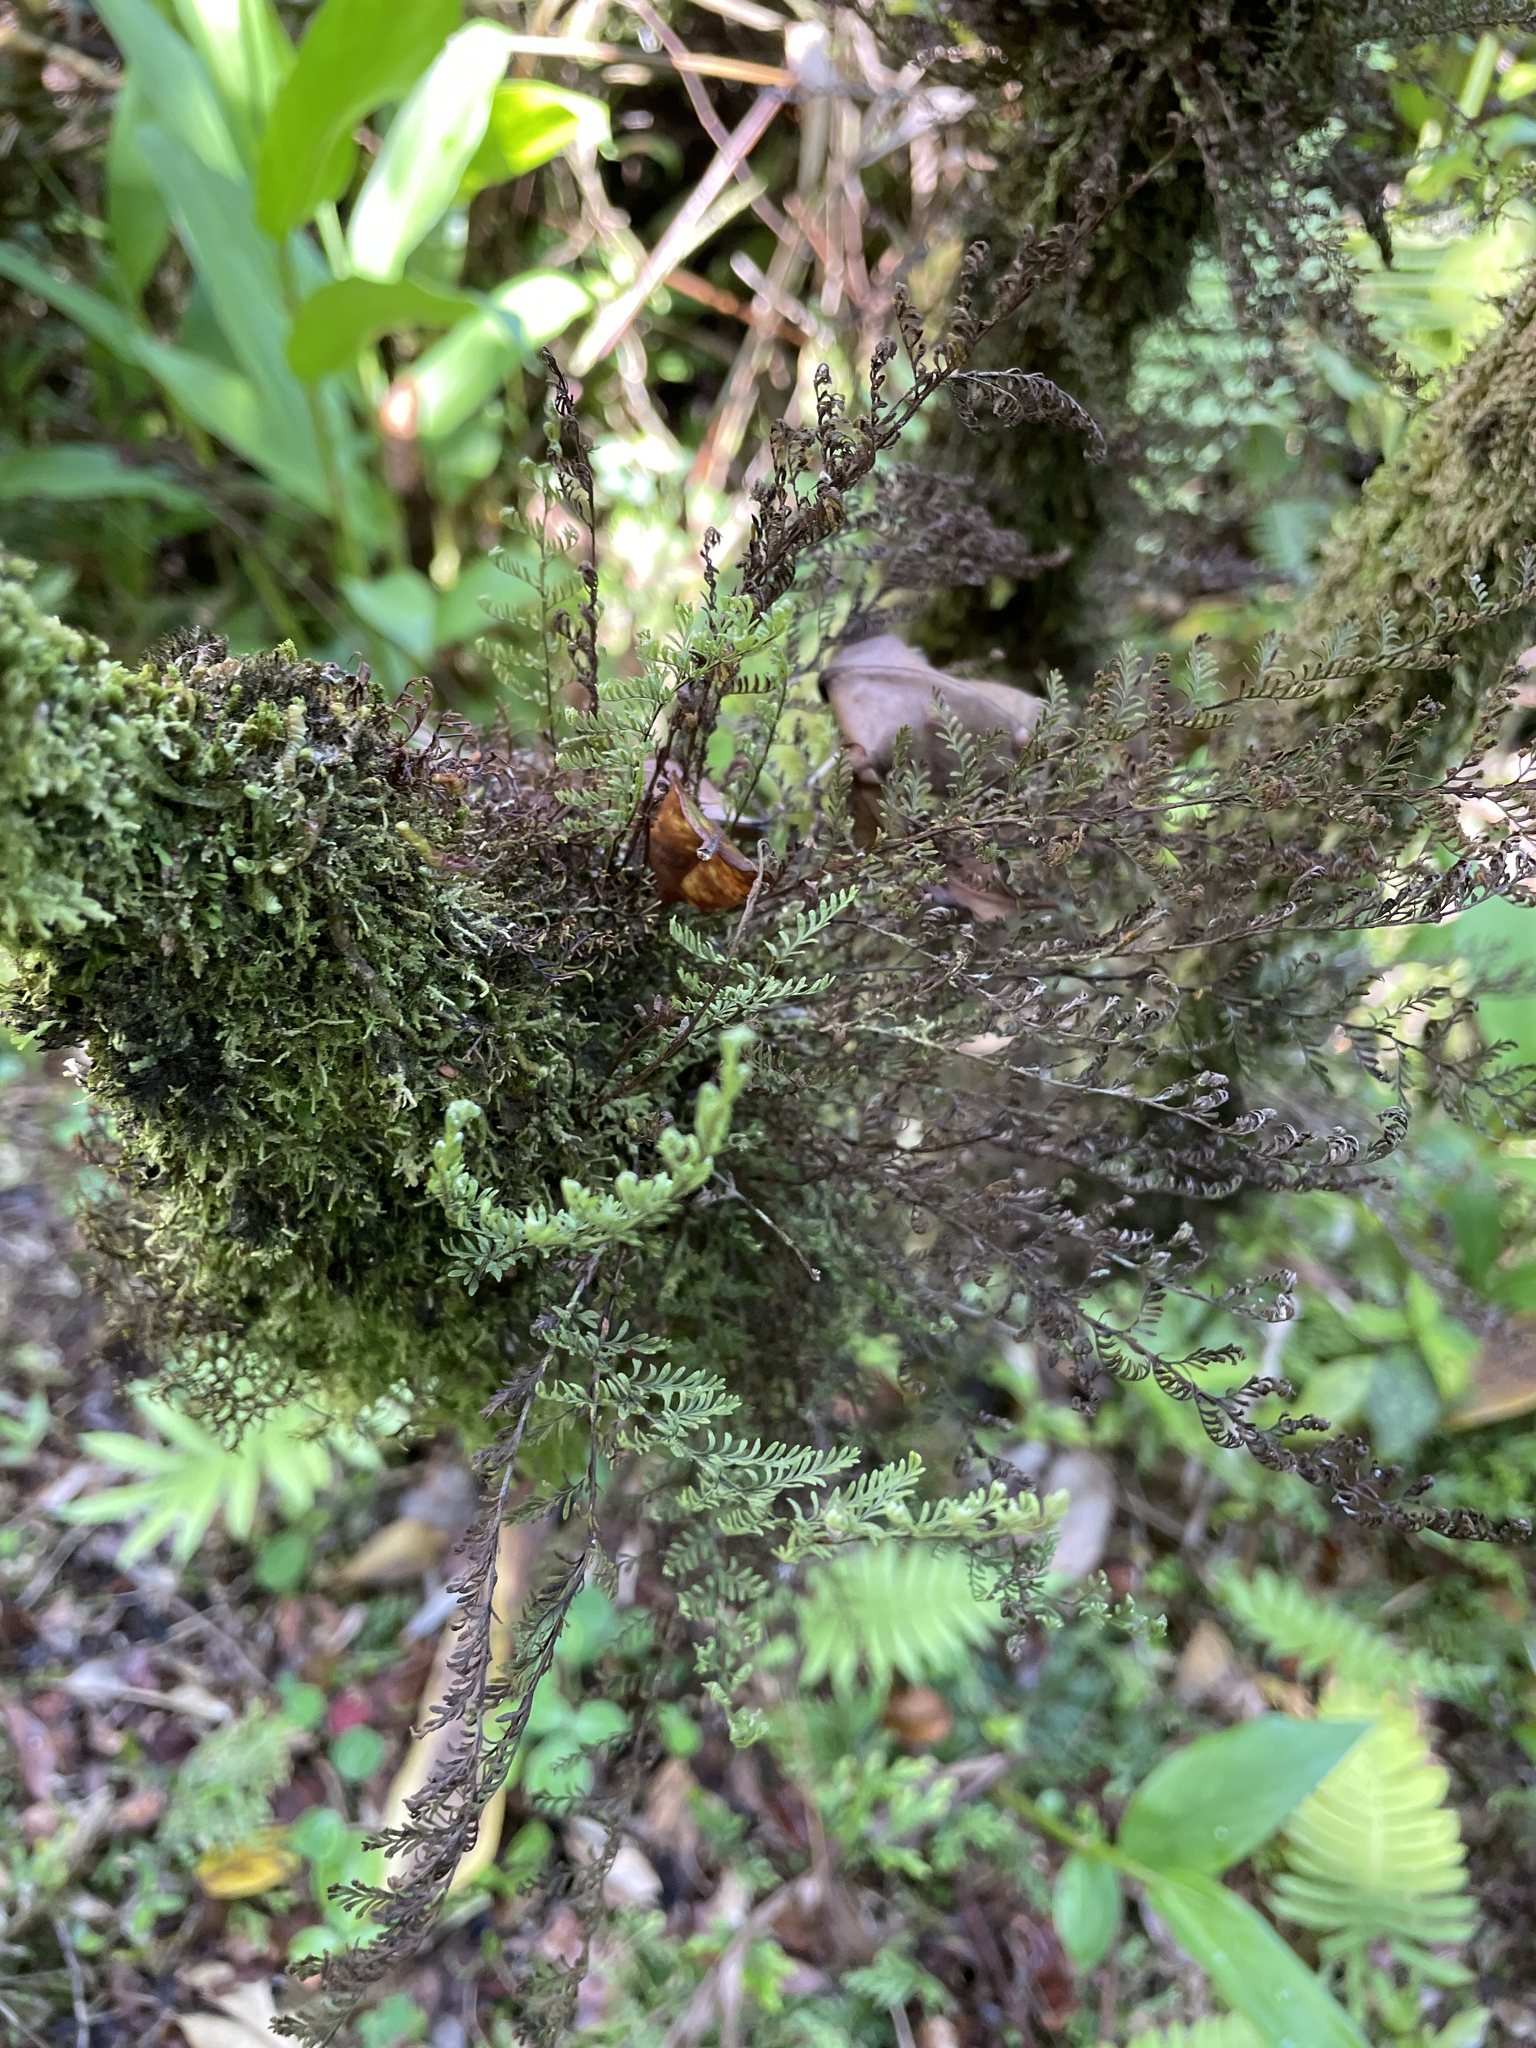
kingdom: Plantae
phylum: Tracheophyta
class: Polypodiopsida
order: Polypodiales
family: Polypodiaceae
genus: Adenophorus
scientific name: Adenophorus tamariscinus
